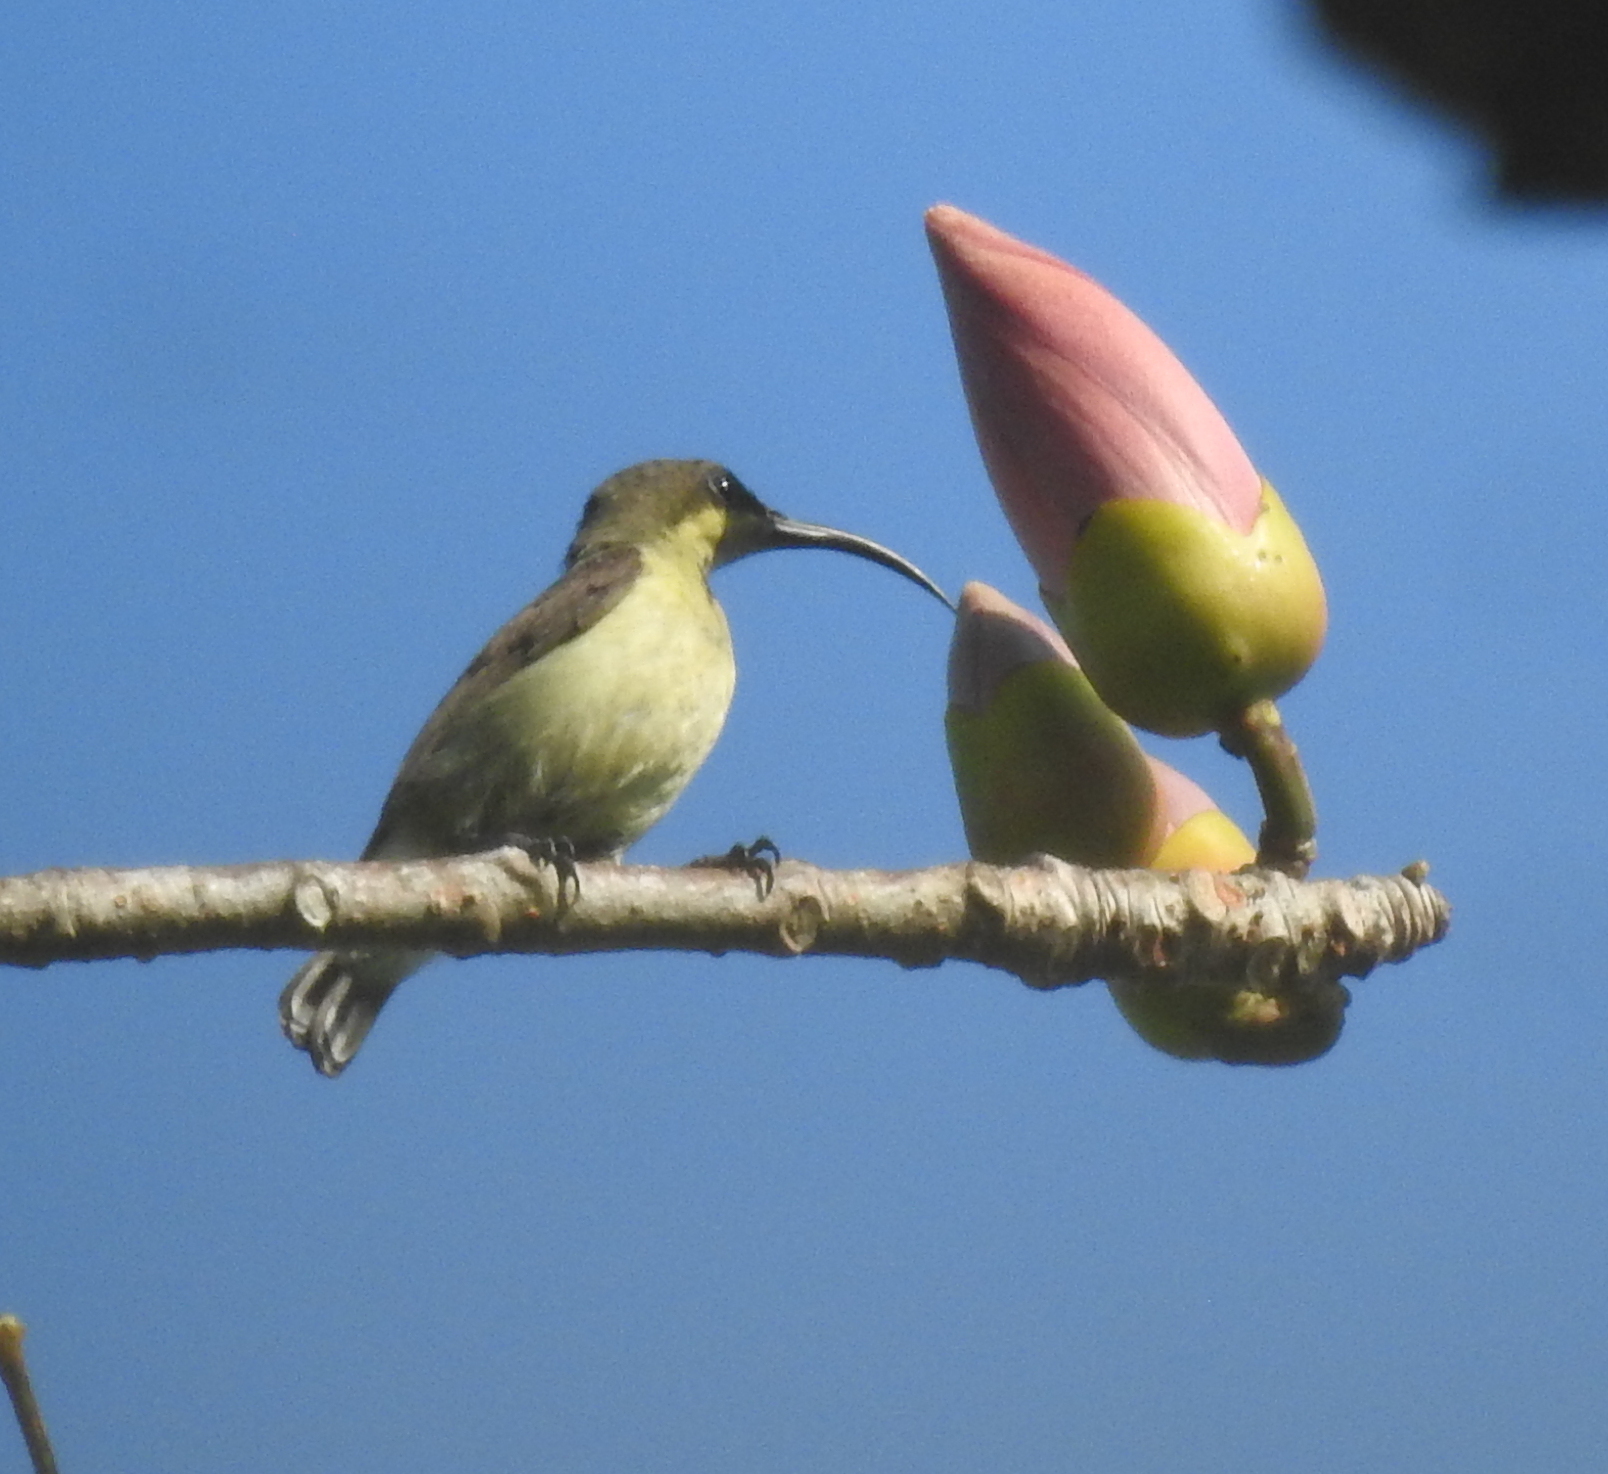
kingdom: Animalia
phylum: Chordata
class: Aves
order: Passeriformes
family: Nectariniidae
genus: Cinnyris
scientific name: Cinnyris lotenius
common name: Loten's sunbird
